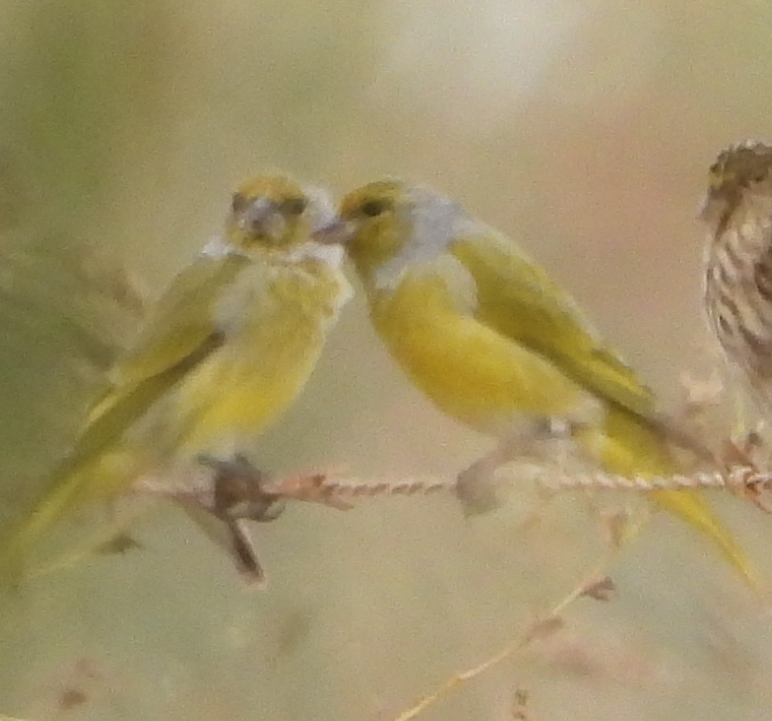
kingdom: Animalia
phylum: Chordata
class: Aves
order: Passeriformes
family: Fringillidae
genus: Serinus
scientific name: Serinus canicollis
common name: Cape canary
